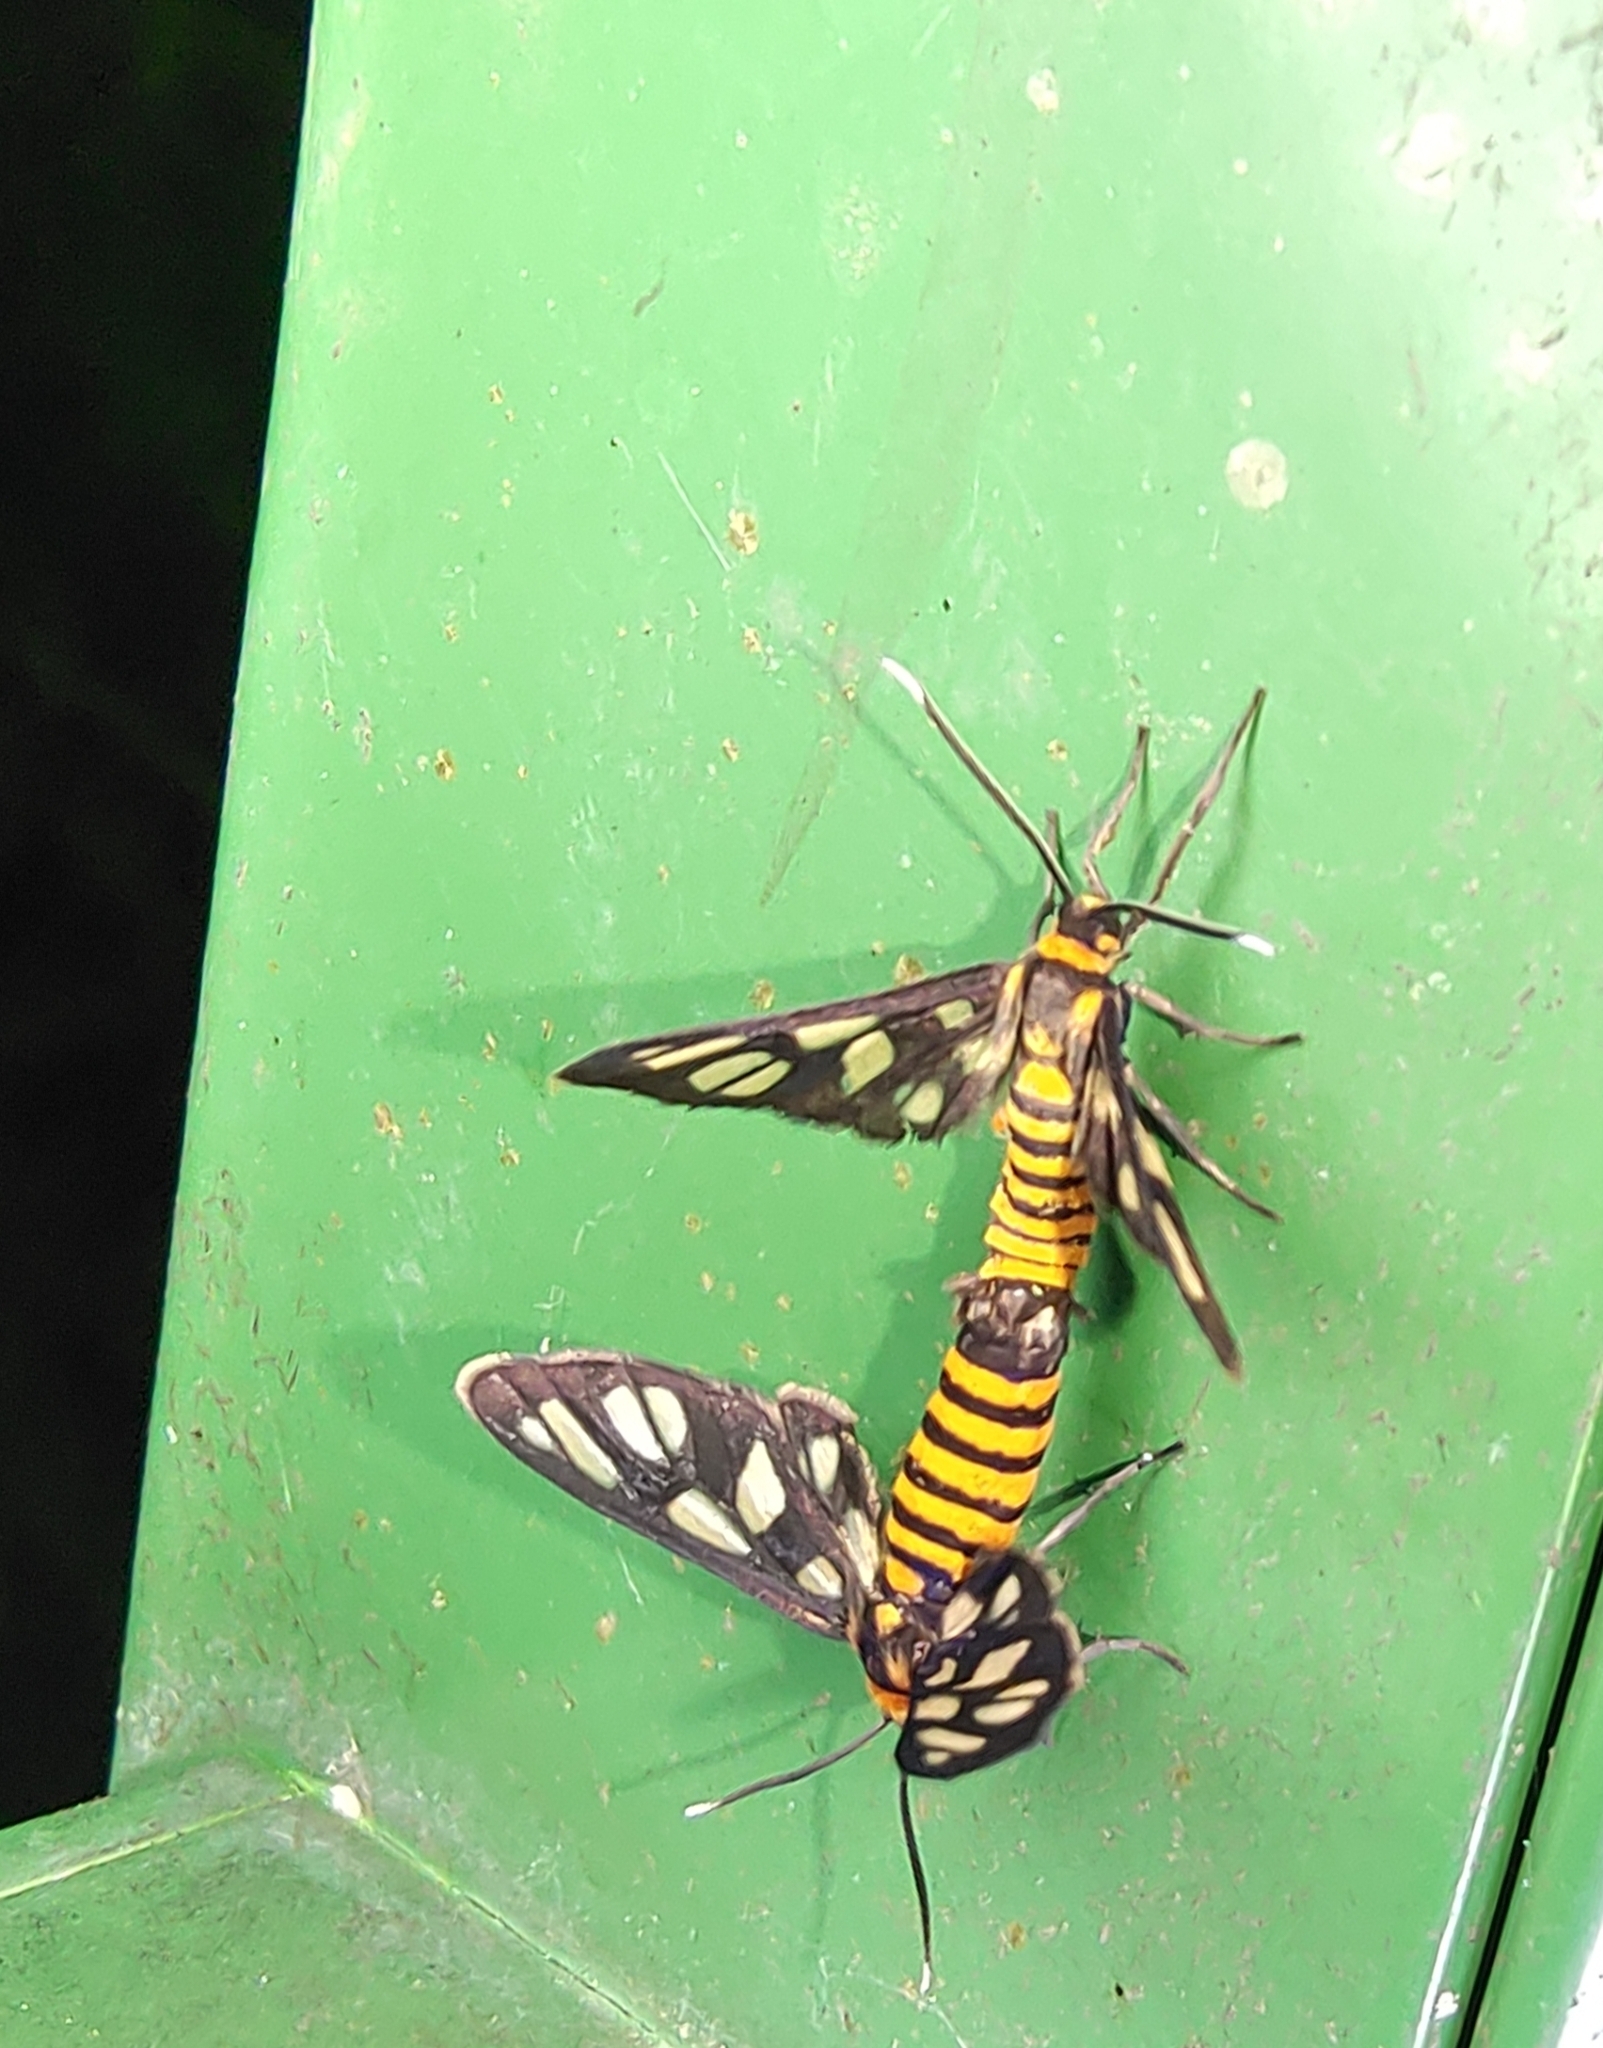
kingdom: Animalia
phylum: Arthropoda
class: Insecta
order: Lepidoptera
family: Erebidae
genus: Amata
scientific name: Amata huebneri
